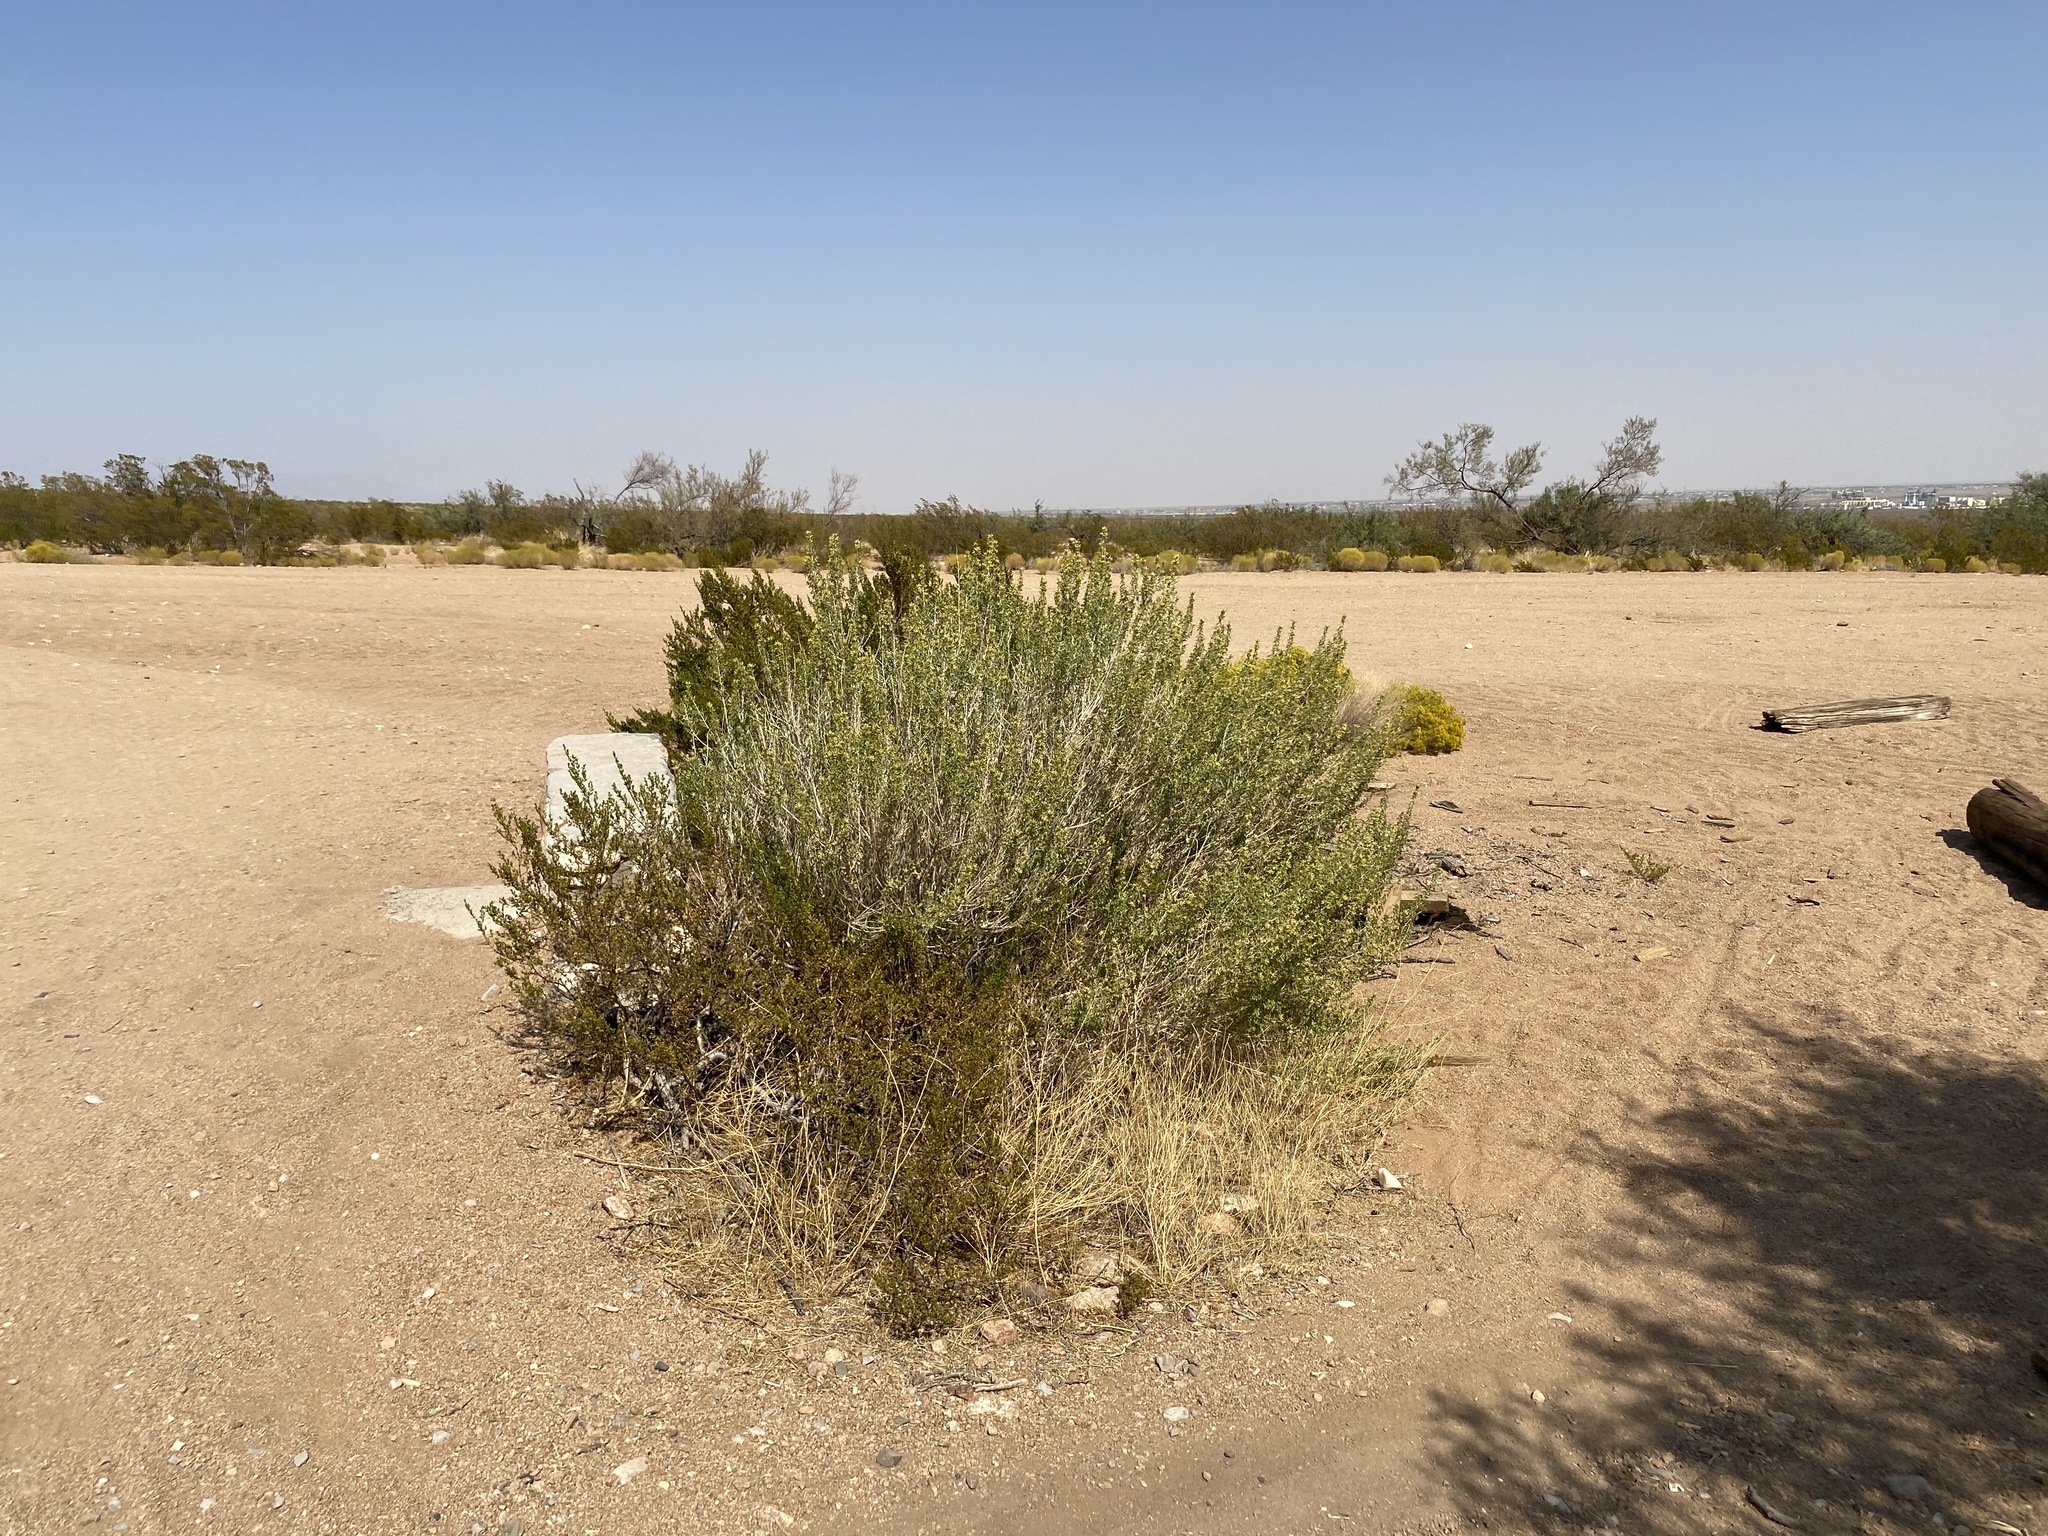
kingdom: Plantae
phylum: Tracheophyta
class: Magnoliopsida
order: Asterales
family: Asteraceae
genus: Brickellia
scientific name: Brickellia laciniata
